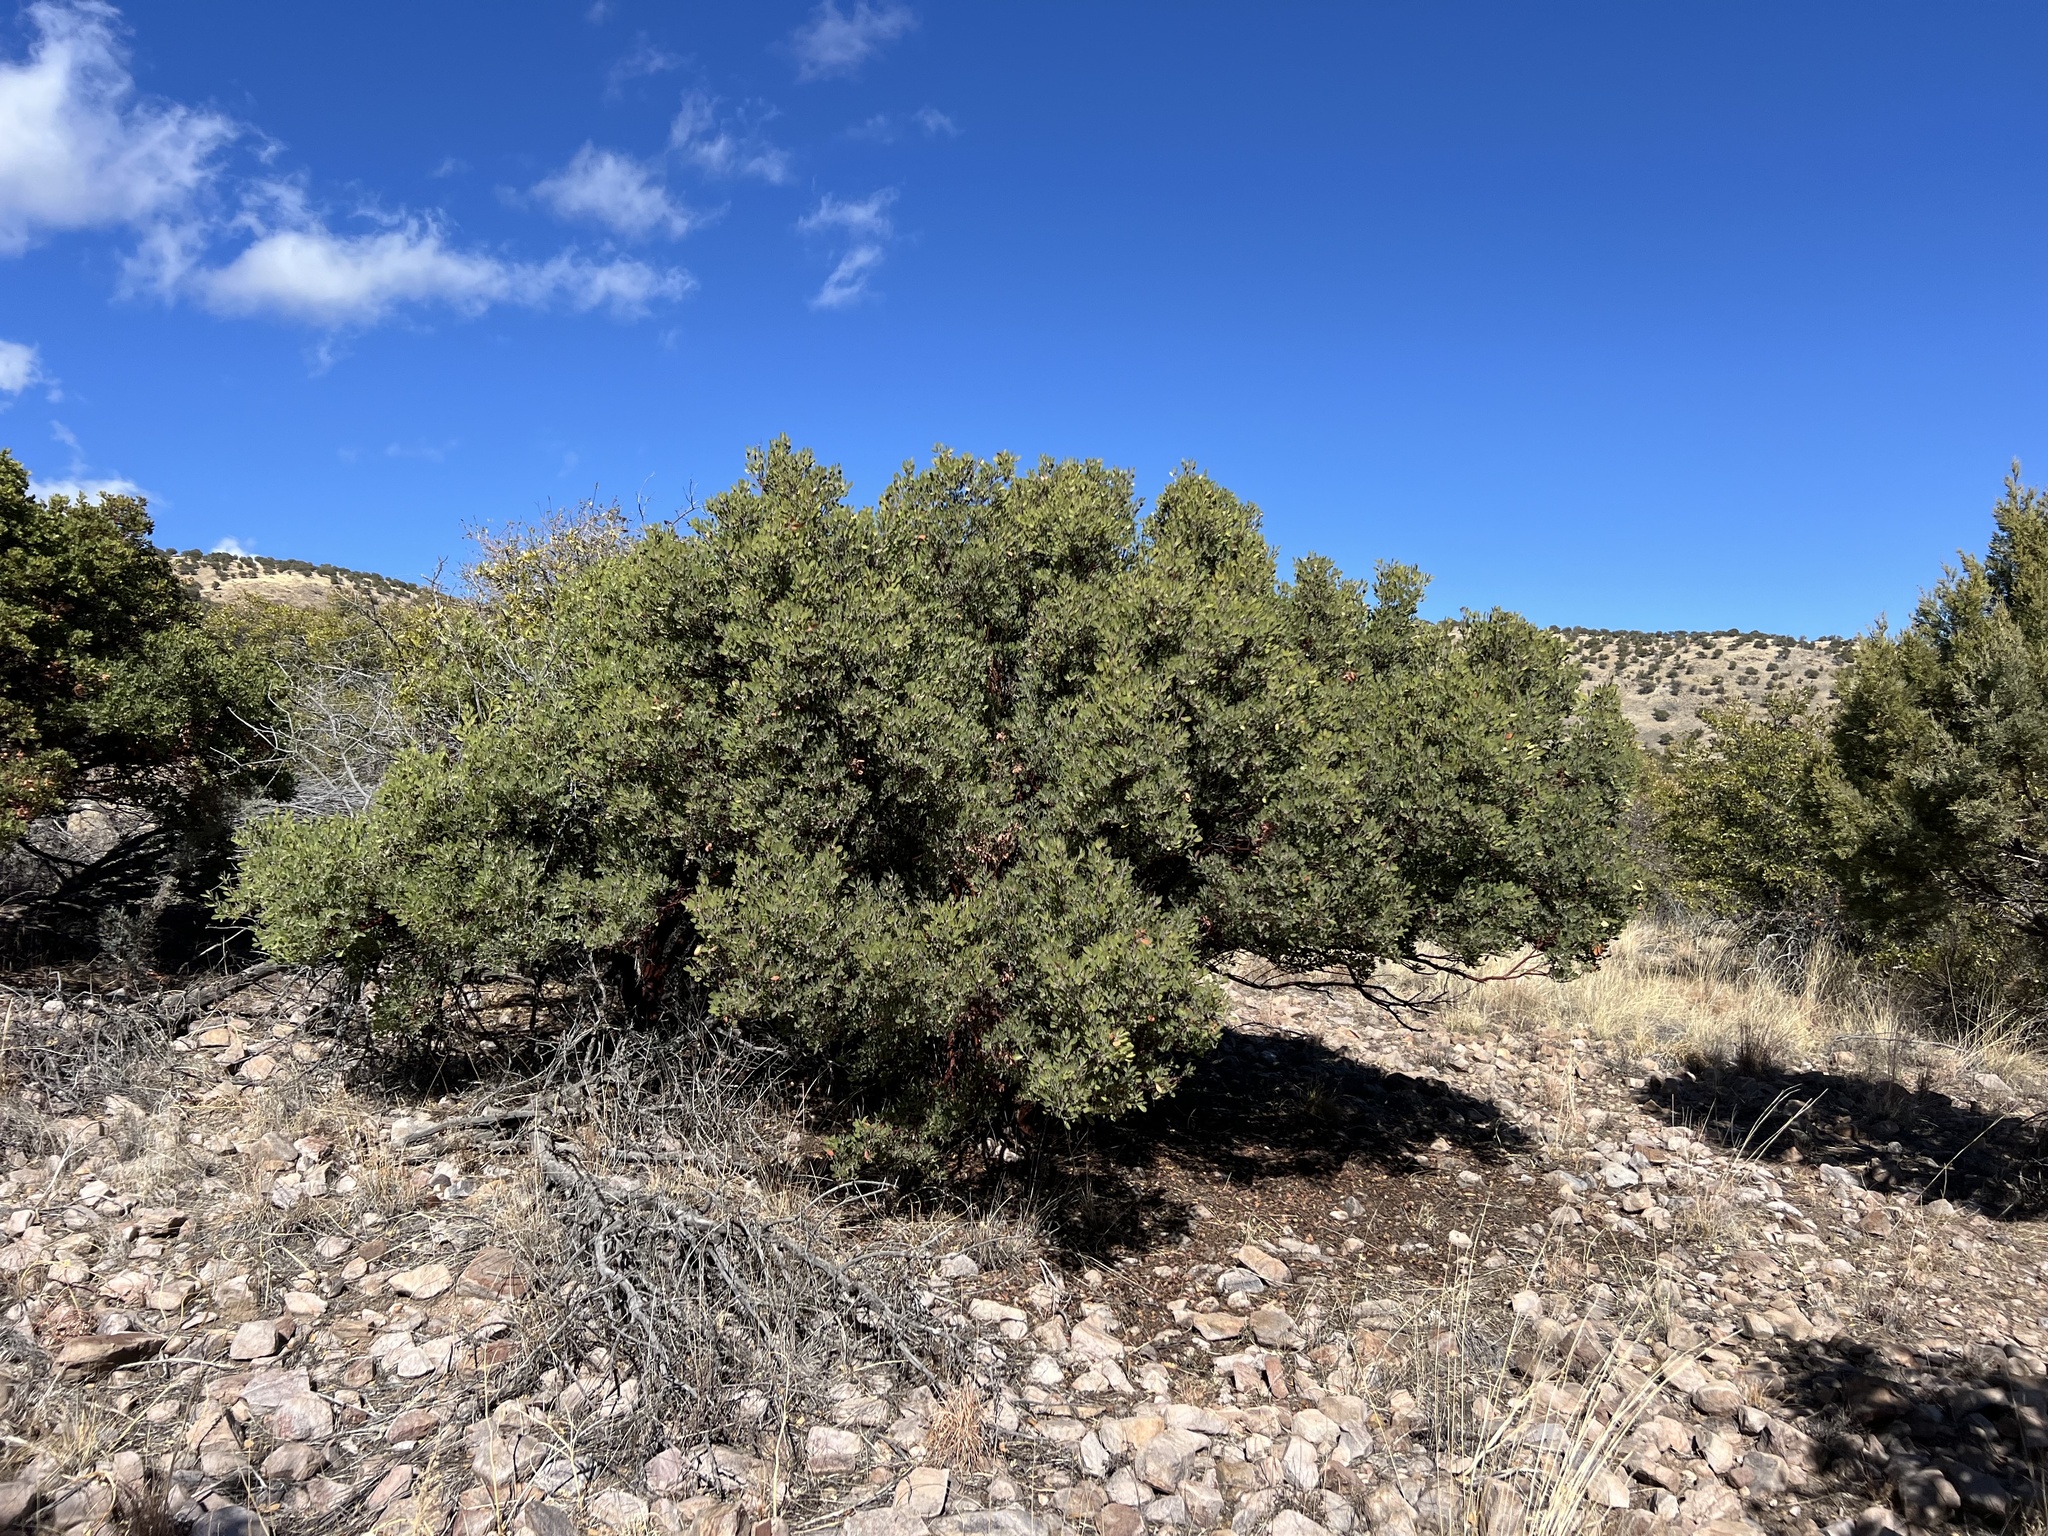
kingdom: Plantae
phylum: Tracheophyta
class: Magnoliopsida
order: Ericales
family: Ericaceae
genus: Arctostaphylos
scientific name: Arctostaphylos pungens
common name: Mexican manzanita
